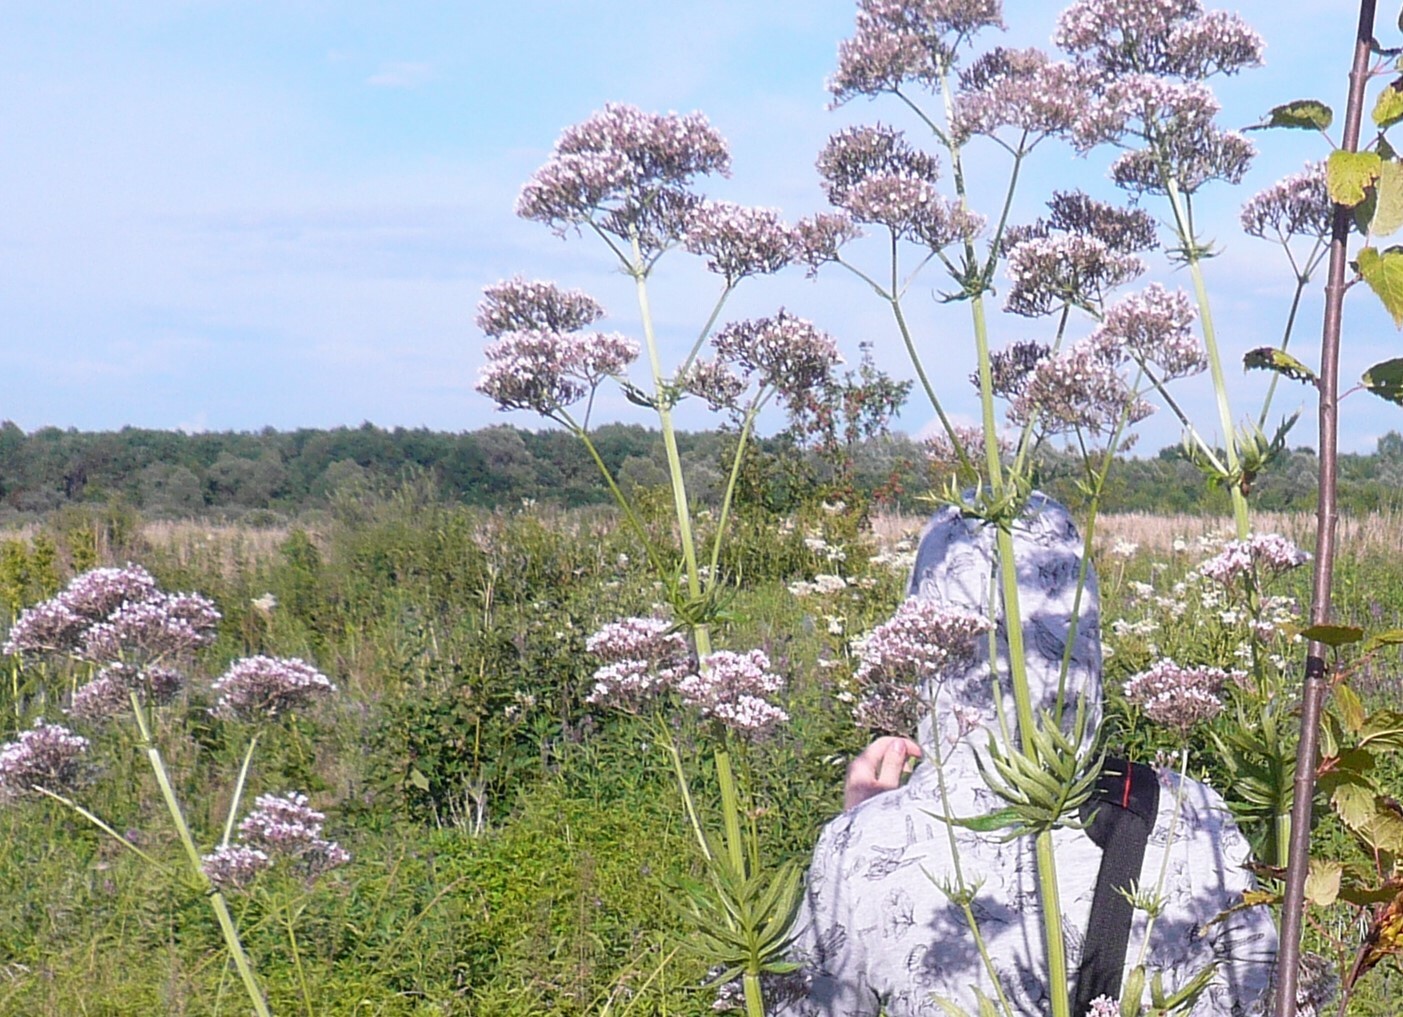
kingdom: Plantae
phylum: Tracheophyta
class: Magnoliopsida
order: Dipsacales
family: Caprifoliaceae
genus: Valeriana
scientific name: Valeriana officinalis
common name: Common valerian
